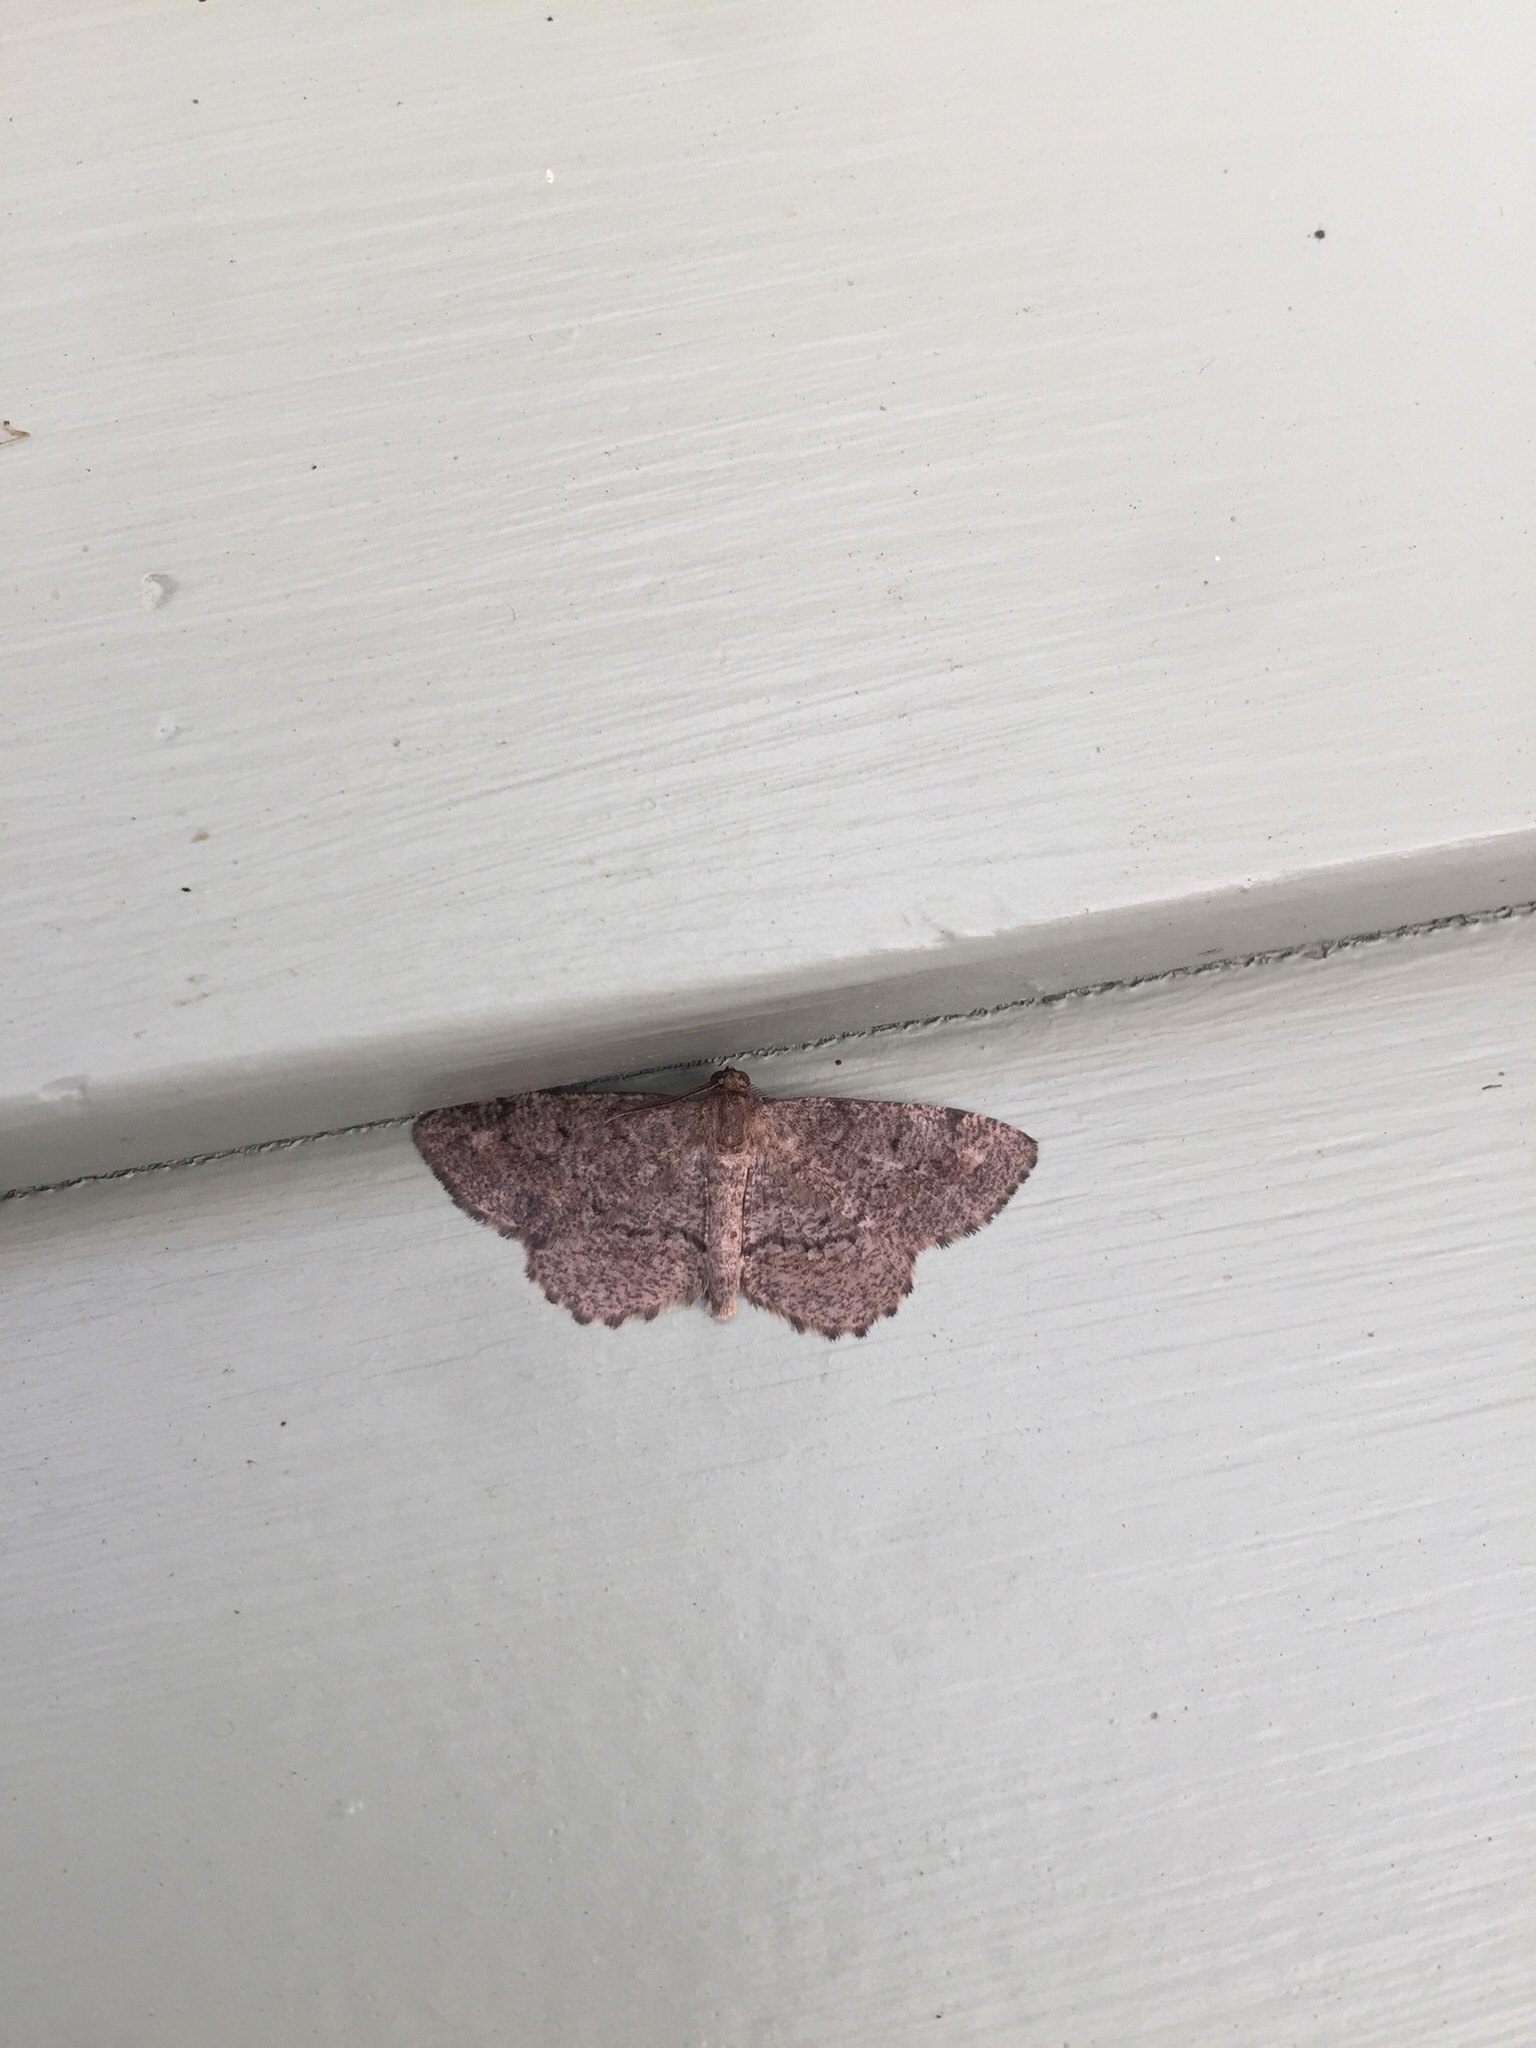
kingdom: Animalia
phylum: Arthropoda
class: Insecta
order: Lepidoptera
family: Geometridae
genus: Protoboarmia
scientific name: Protoboarmia porcelaria
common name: Porcelain gray
